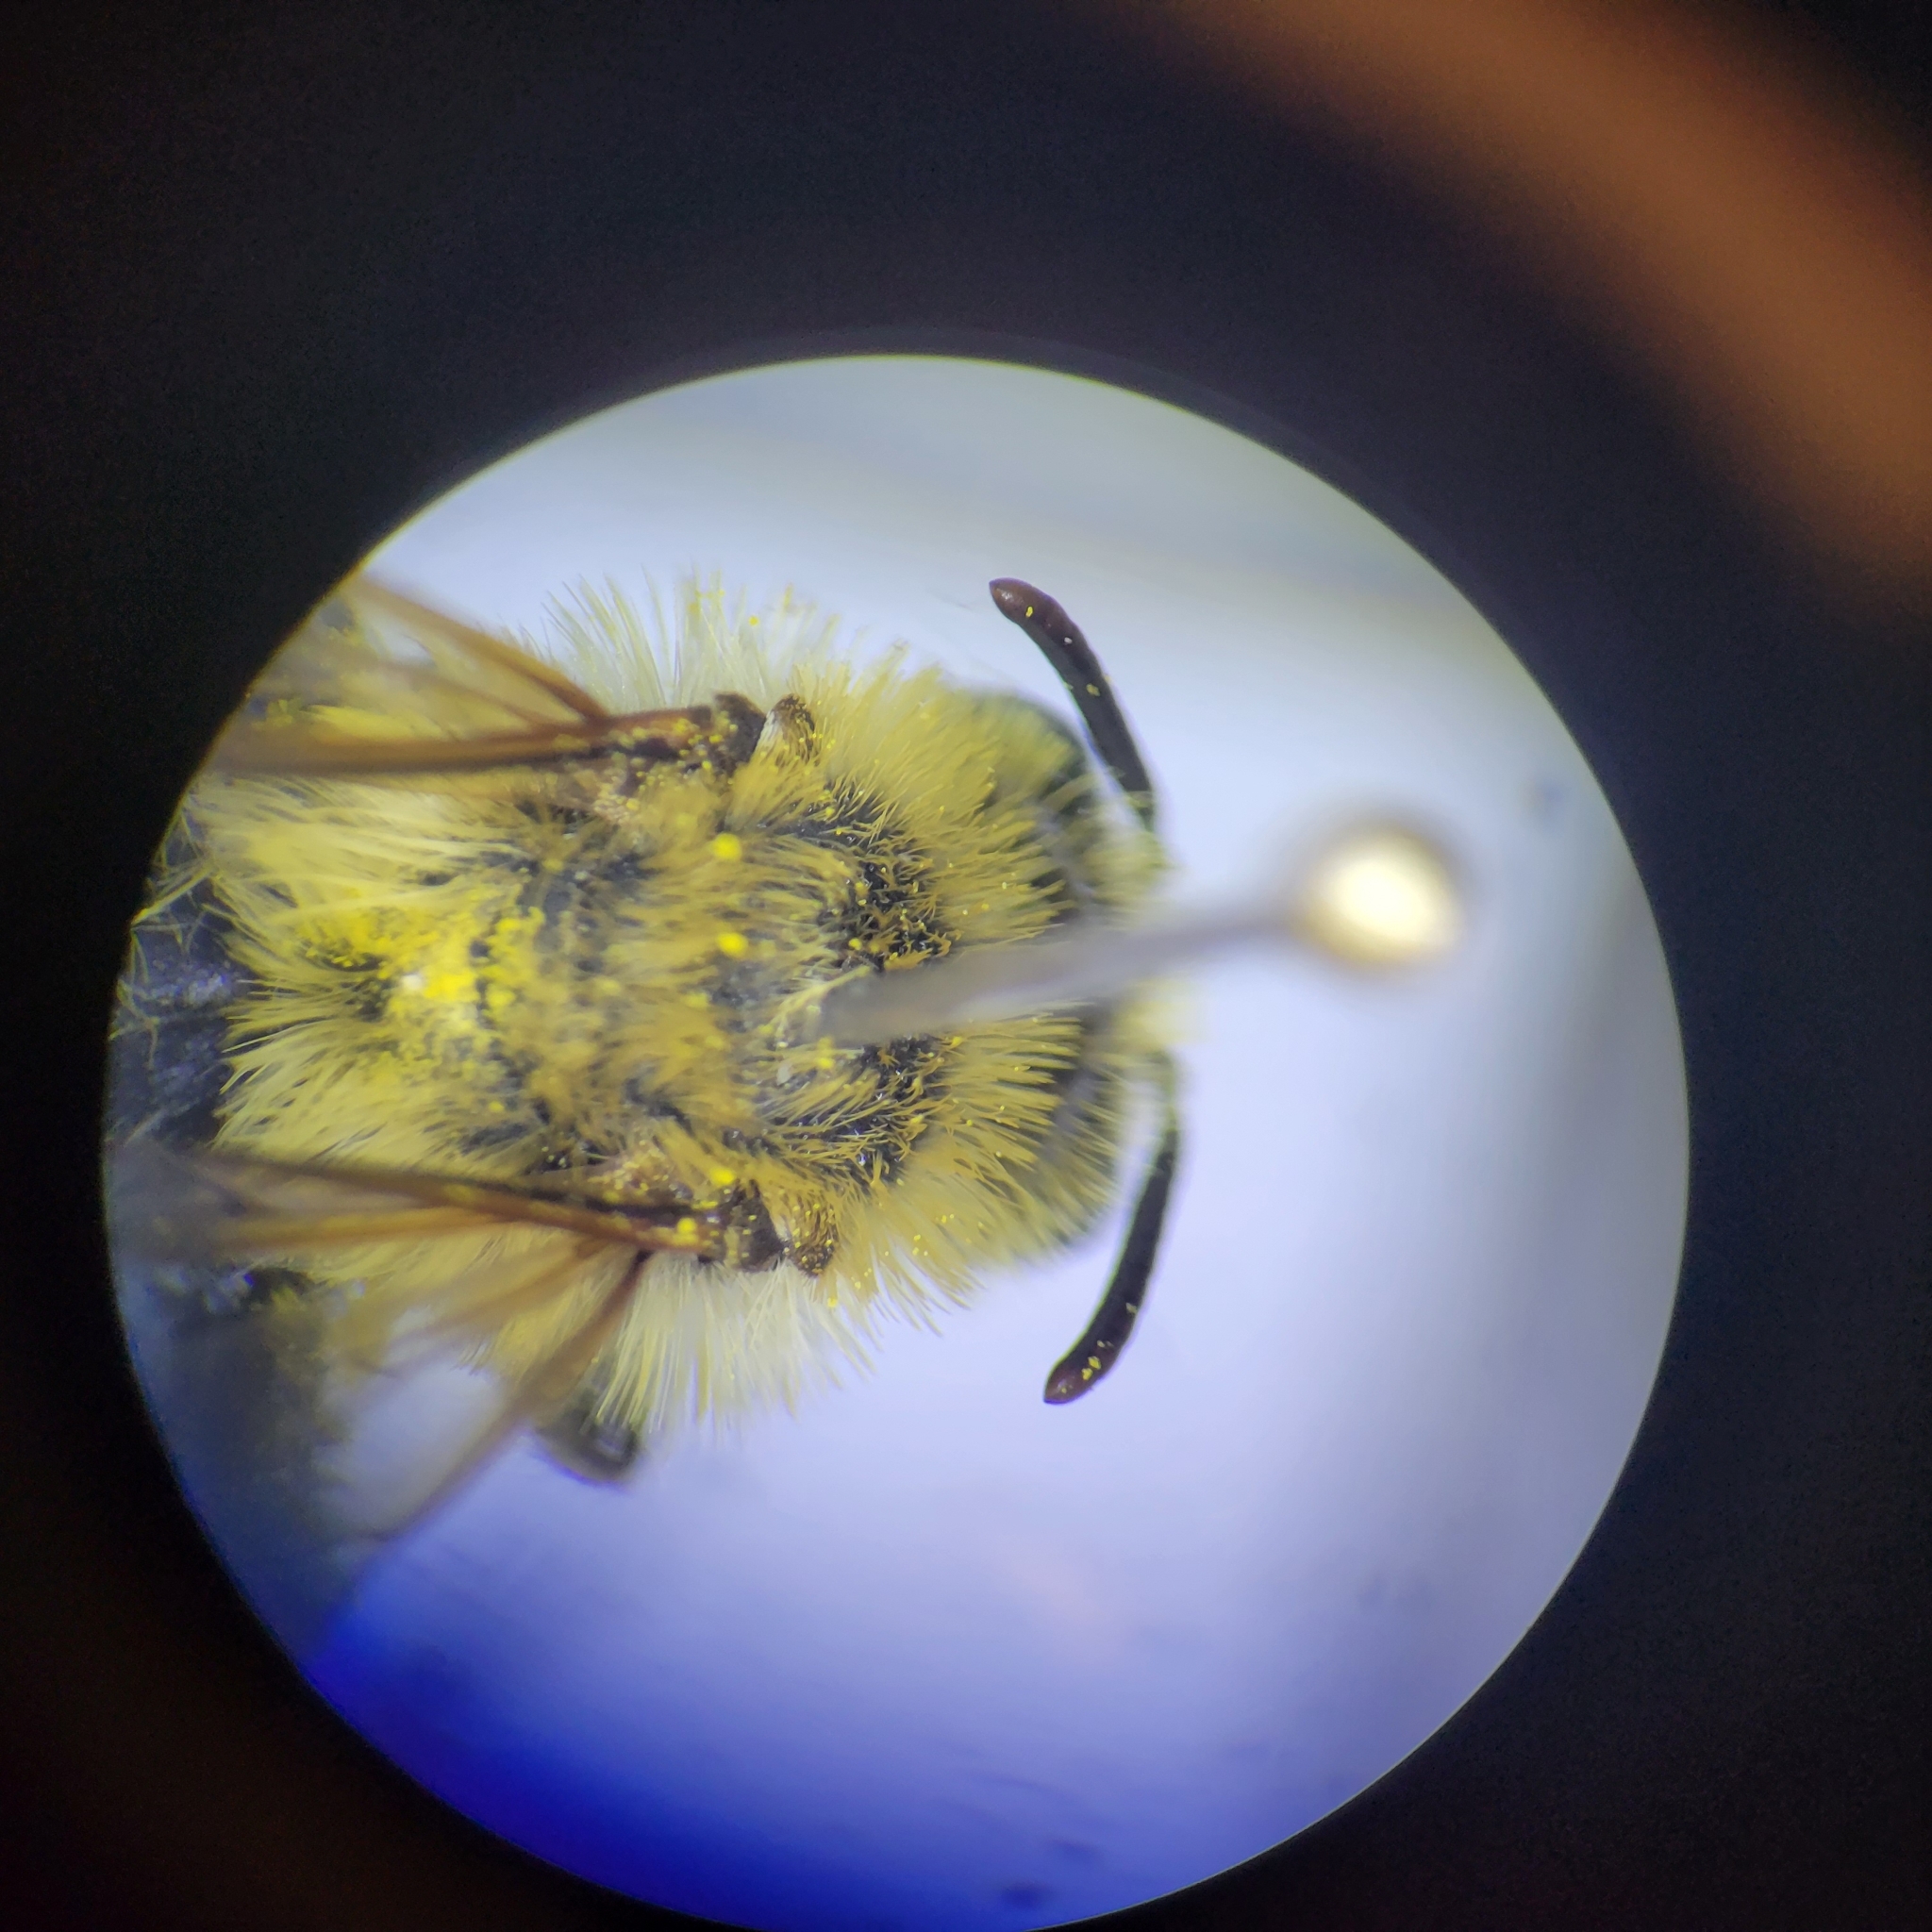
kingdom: Animalia
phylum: Arthropoda
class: Insecta
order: Hymenoptera
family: Andrenidae
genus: Andrena
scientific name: Andrena hirticincta
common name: Hairy-banded mining bee
